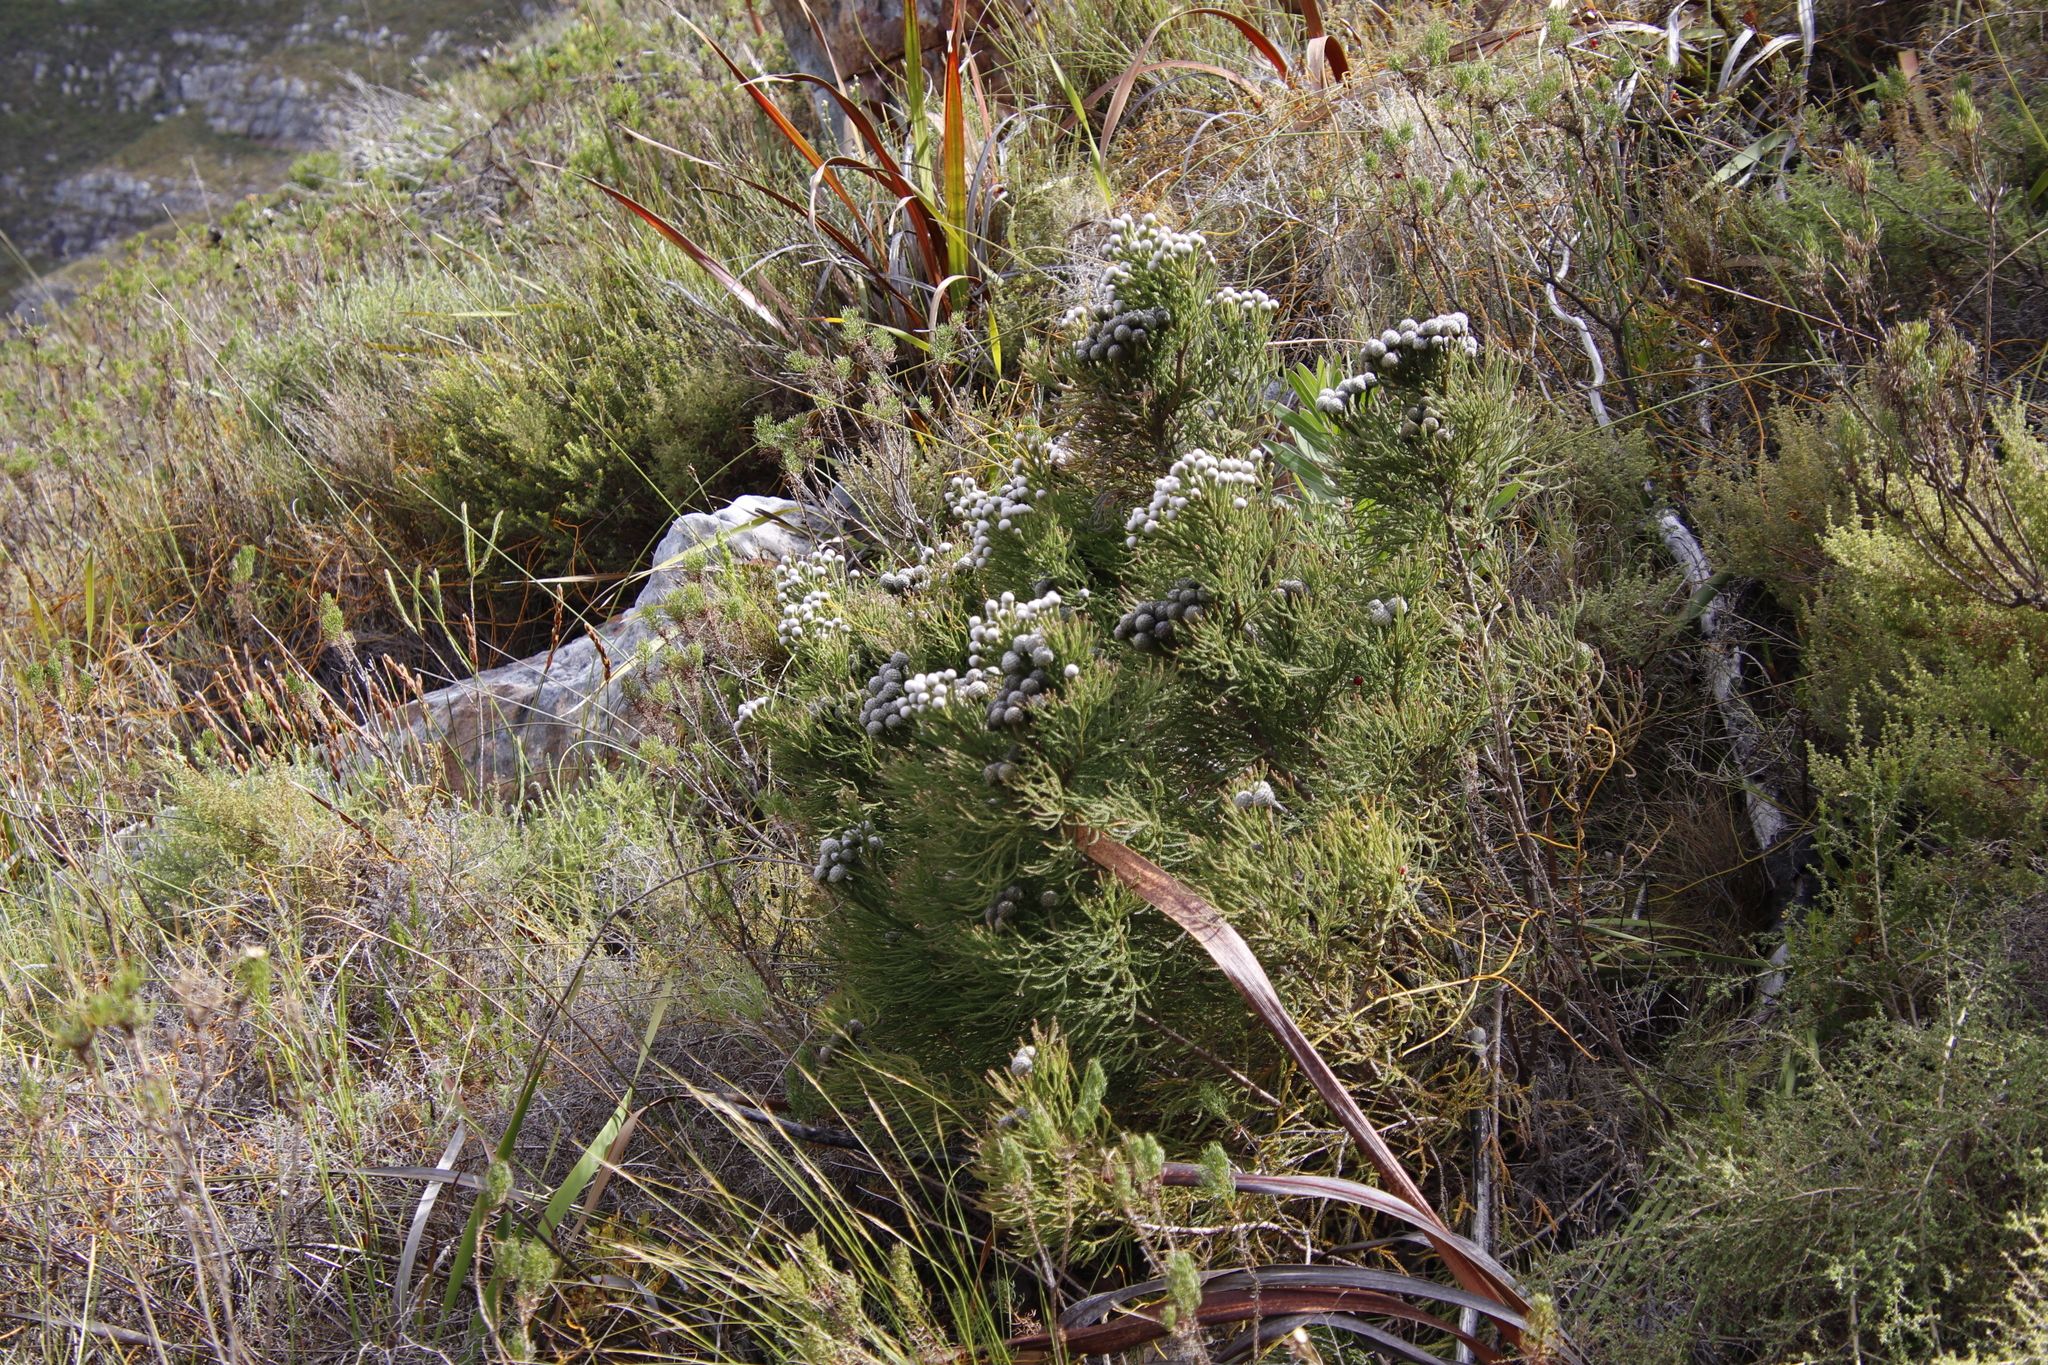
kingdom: Plantae
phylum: Tracheophyta
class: Magnoliopsida
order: Bruniales
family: Bruniaceae
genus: Brunia
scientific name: Brunia noduliflora
